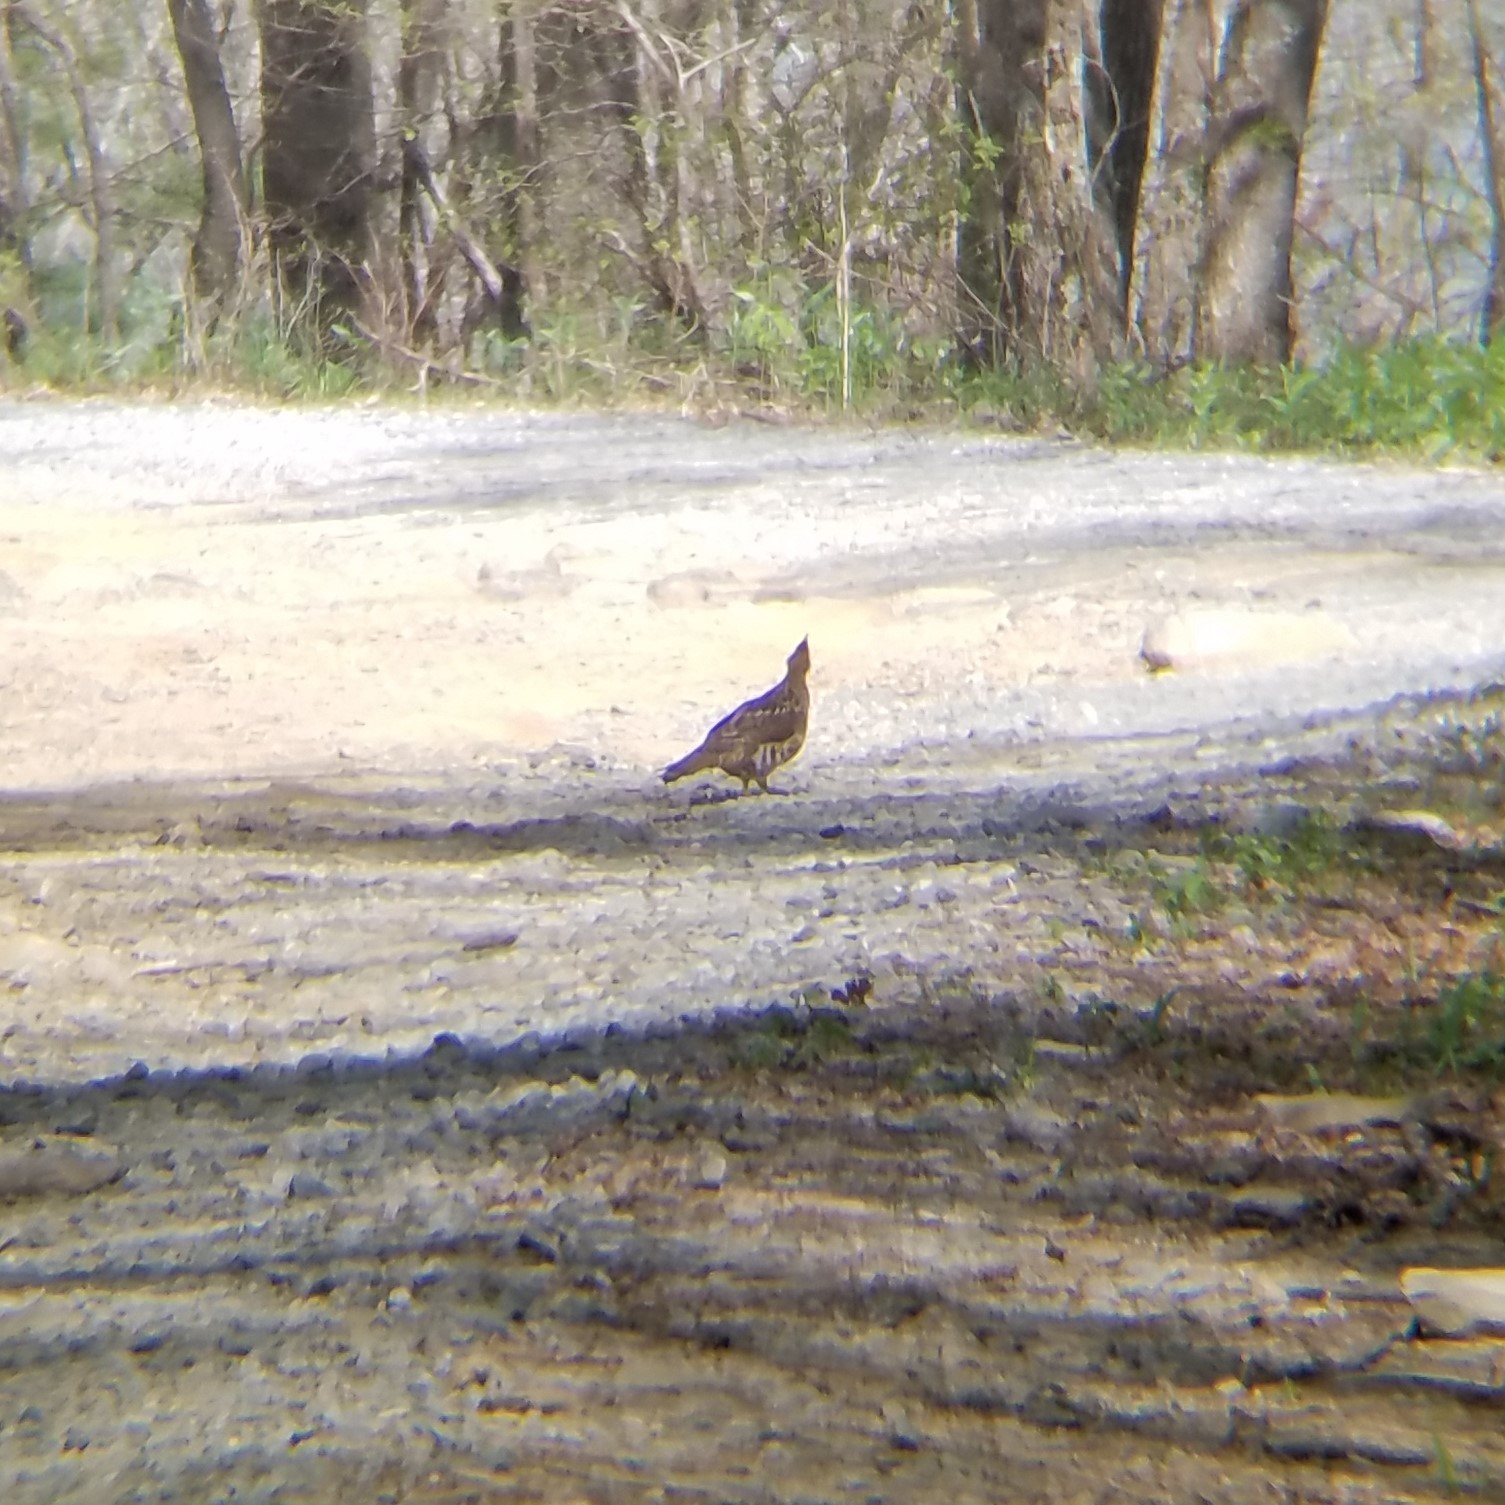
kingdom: Animalia
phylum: Chordata
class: Aves
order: Galliformes
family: Phasianidae
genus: Bonasa
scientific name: Bonasa umbellus
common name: Ruffed grouse
